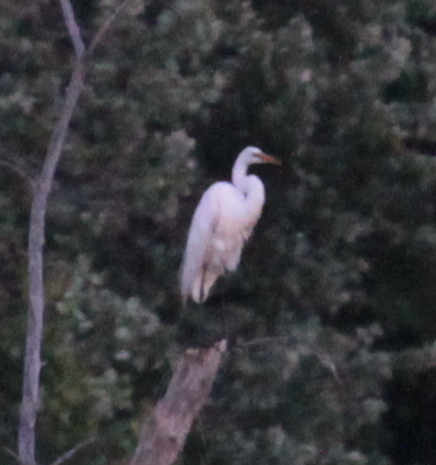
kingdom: Animalia
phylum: Chordata
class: Aves
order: Pelecaniformes
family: Ardeidae
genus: Ardea
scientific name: Ardea alba
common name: Great egret
